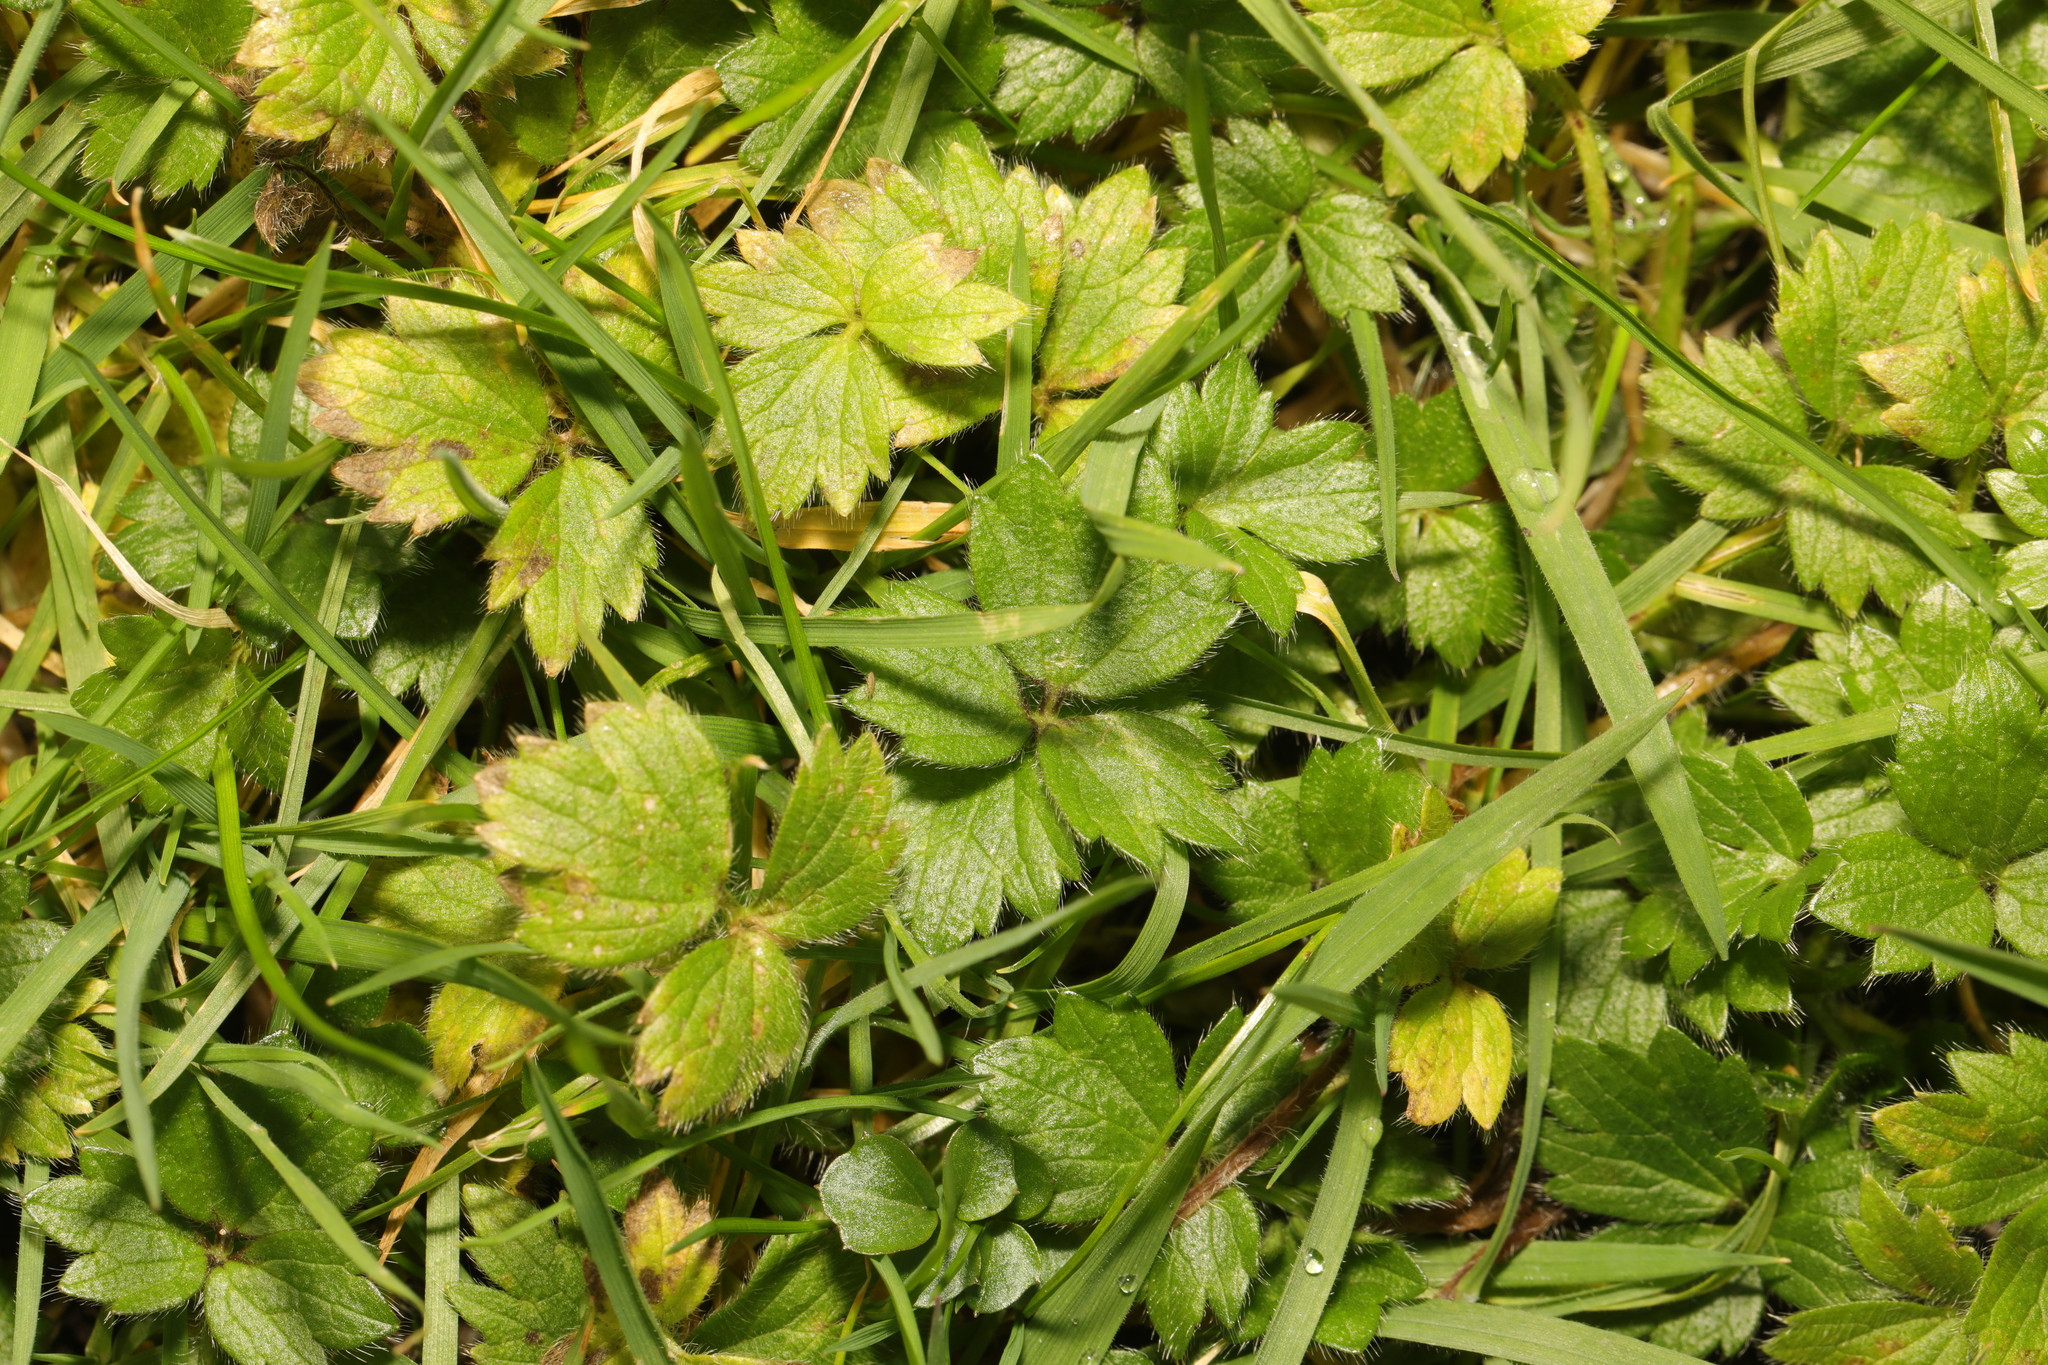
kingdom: Plantae
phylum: Tracheophyta
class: Magnoliopsida
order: Ranunculales
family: Ranunculaceae
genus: Ranunculus
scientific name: Ranunculus repens
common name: Creeping buttercup
